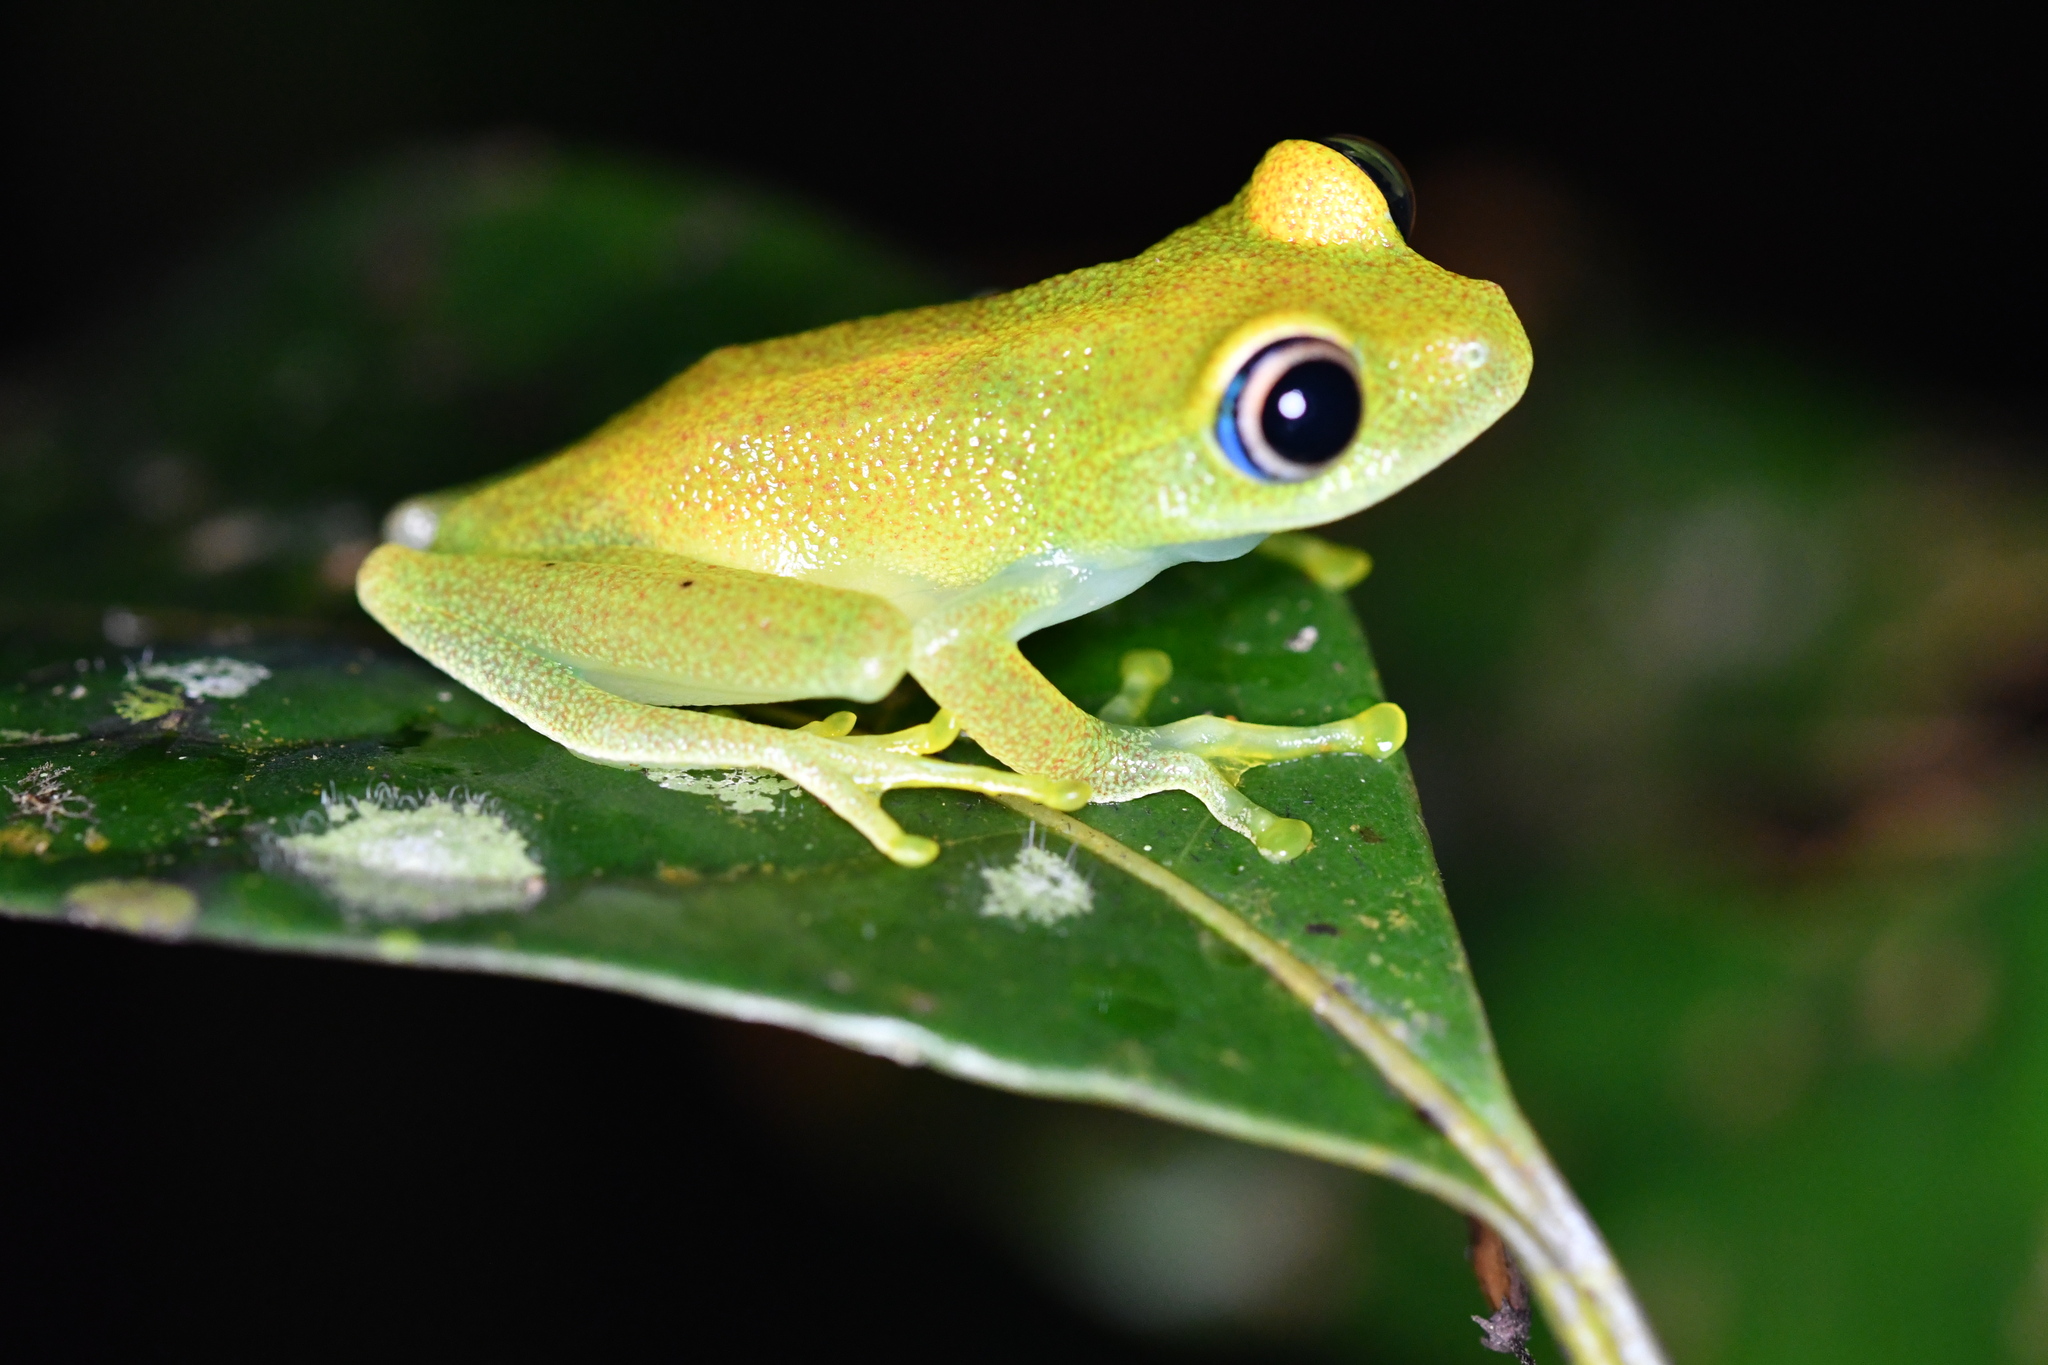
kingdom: Animalia
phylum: Chordata
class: Amphibia
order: Anura
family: Mantellidae
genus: Boophis
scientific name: Boophis viridis
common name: Green bright-eyed frog
